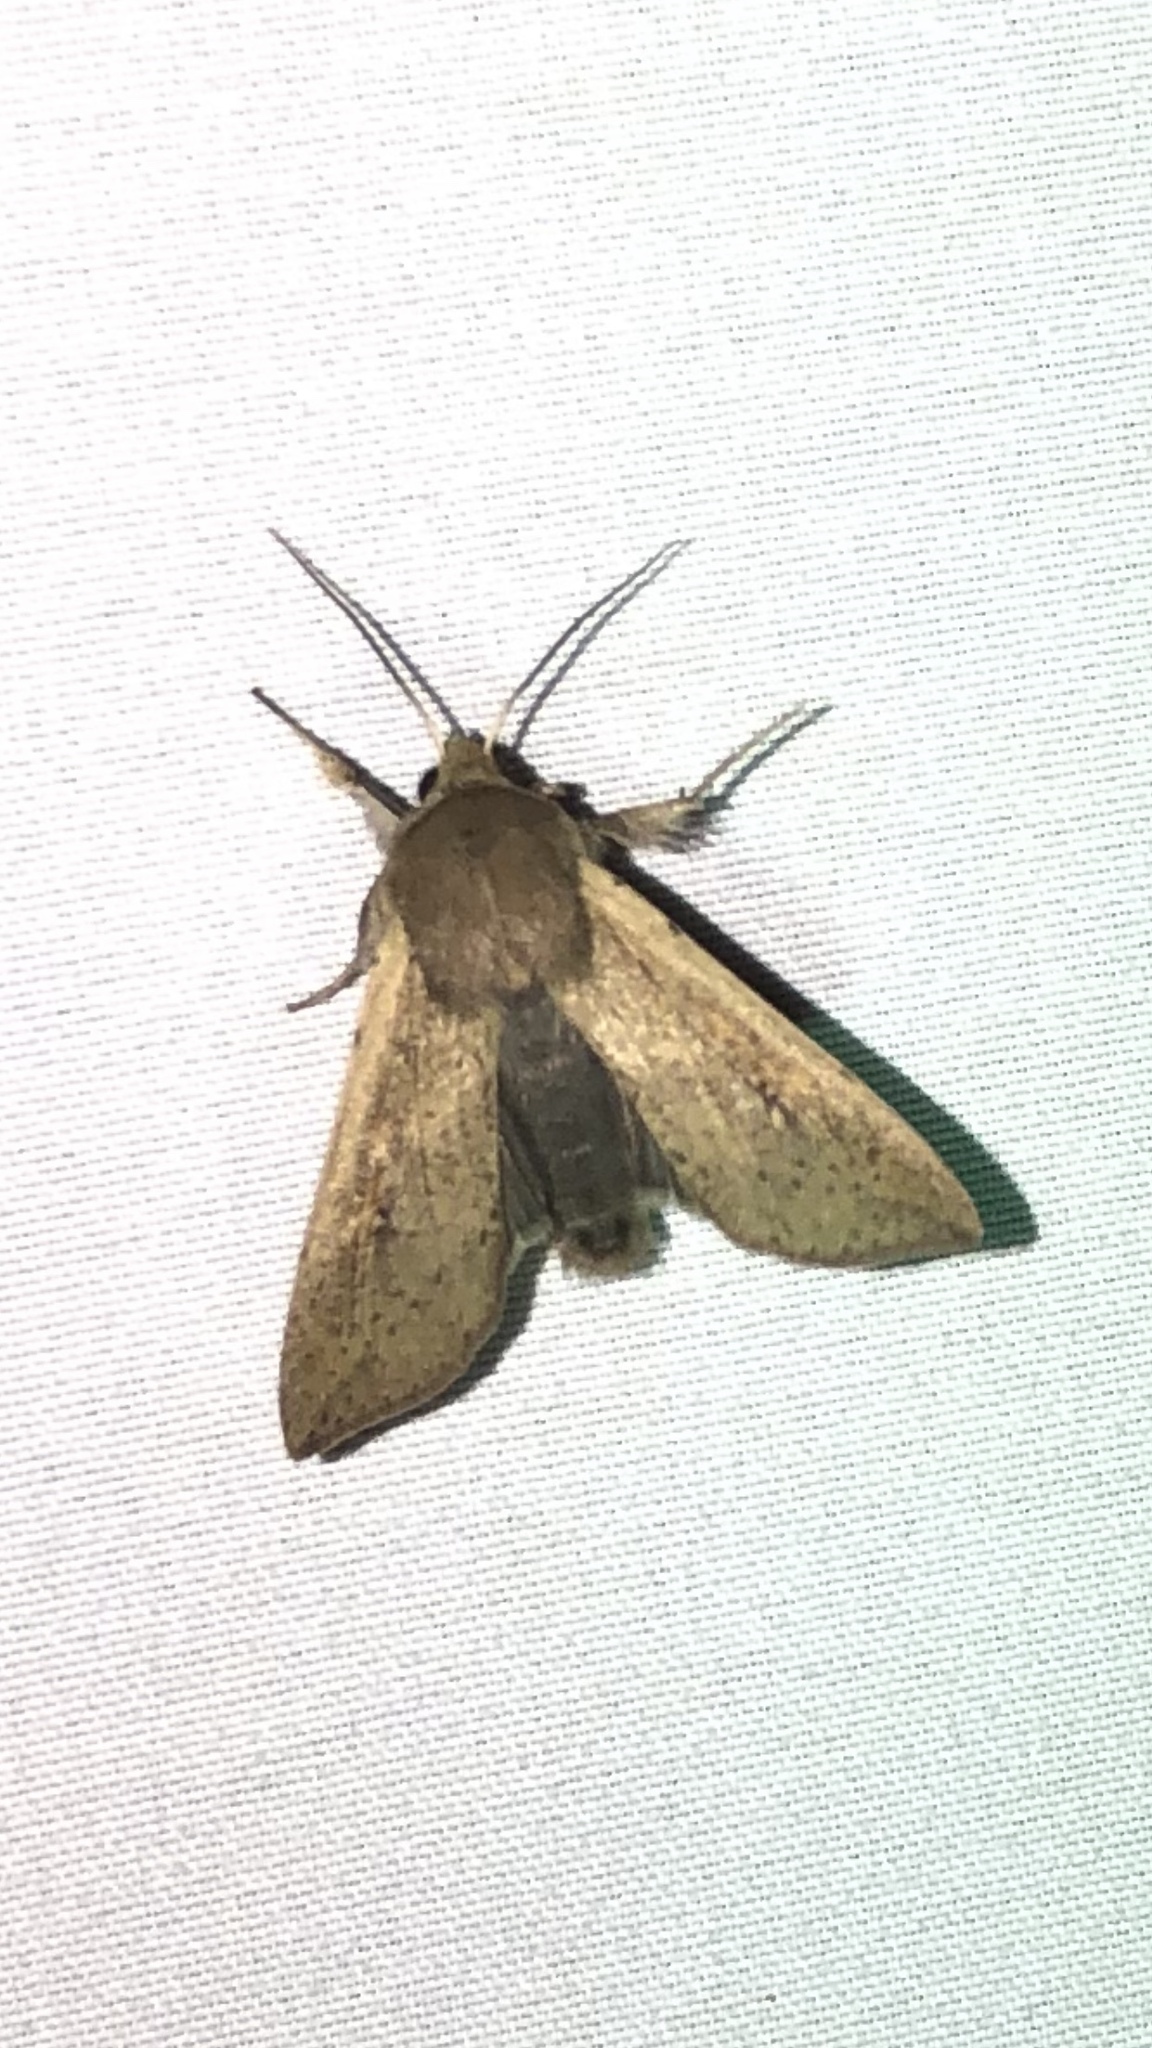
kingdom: Animalia
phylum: Arthropoda
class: Insecta
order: Lepidoptera
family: Noctuidae
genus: Mythimna
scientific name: Mythimna unipuncta
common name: White-speck
